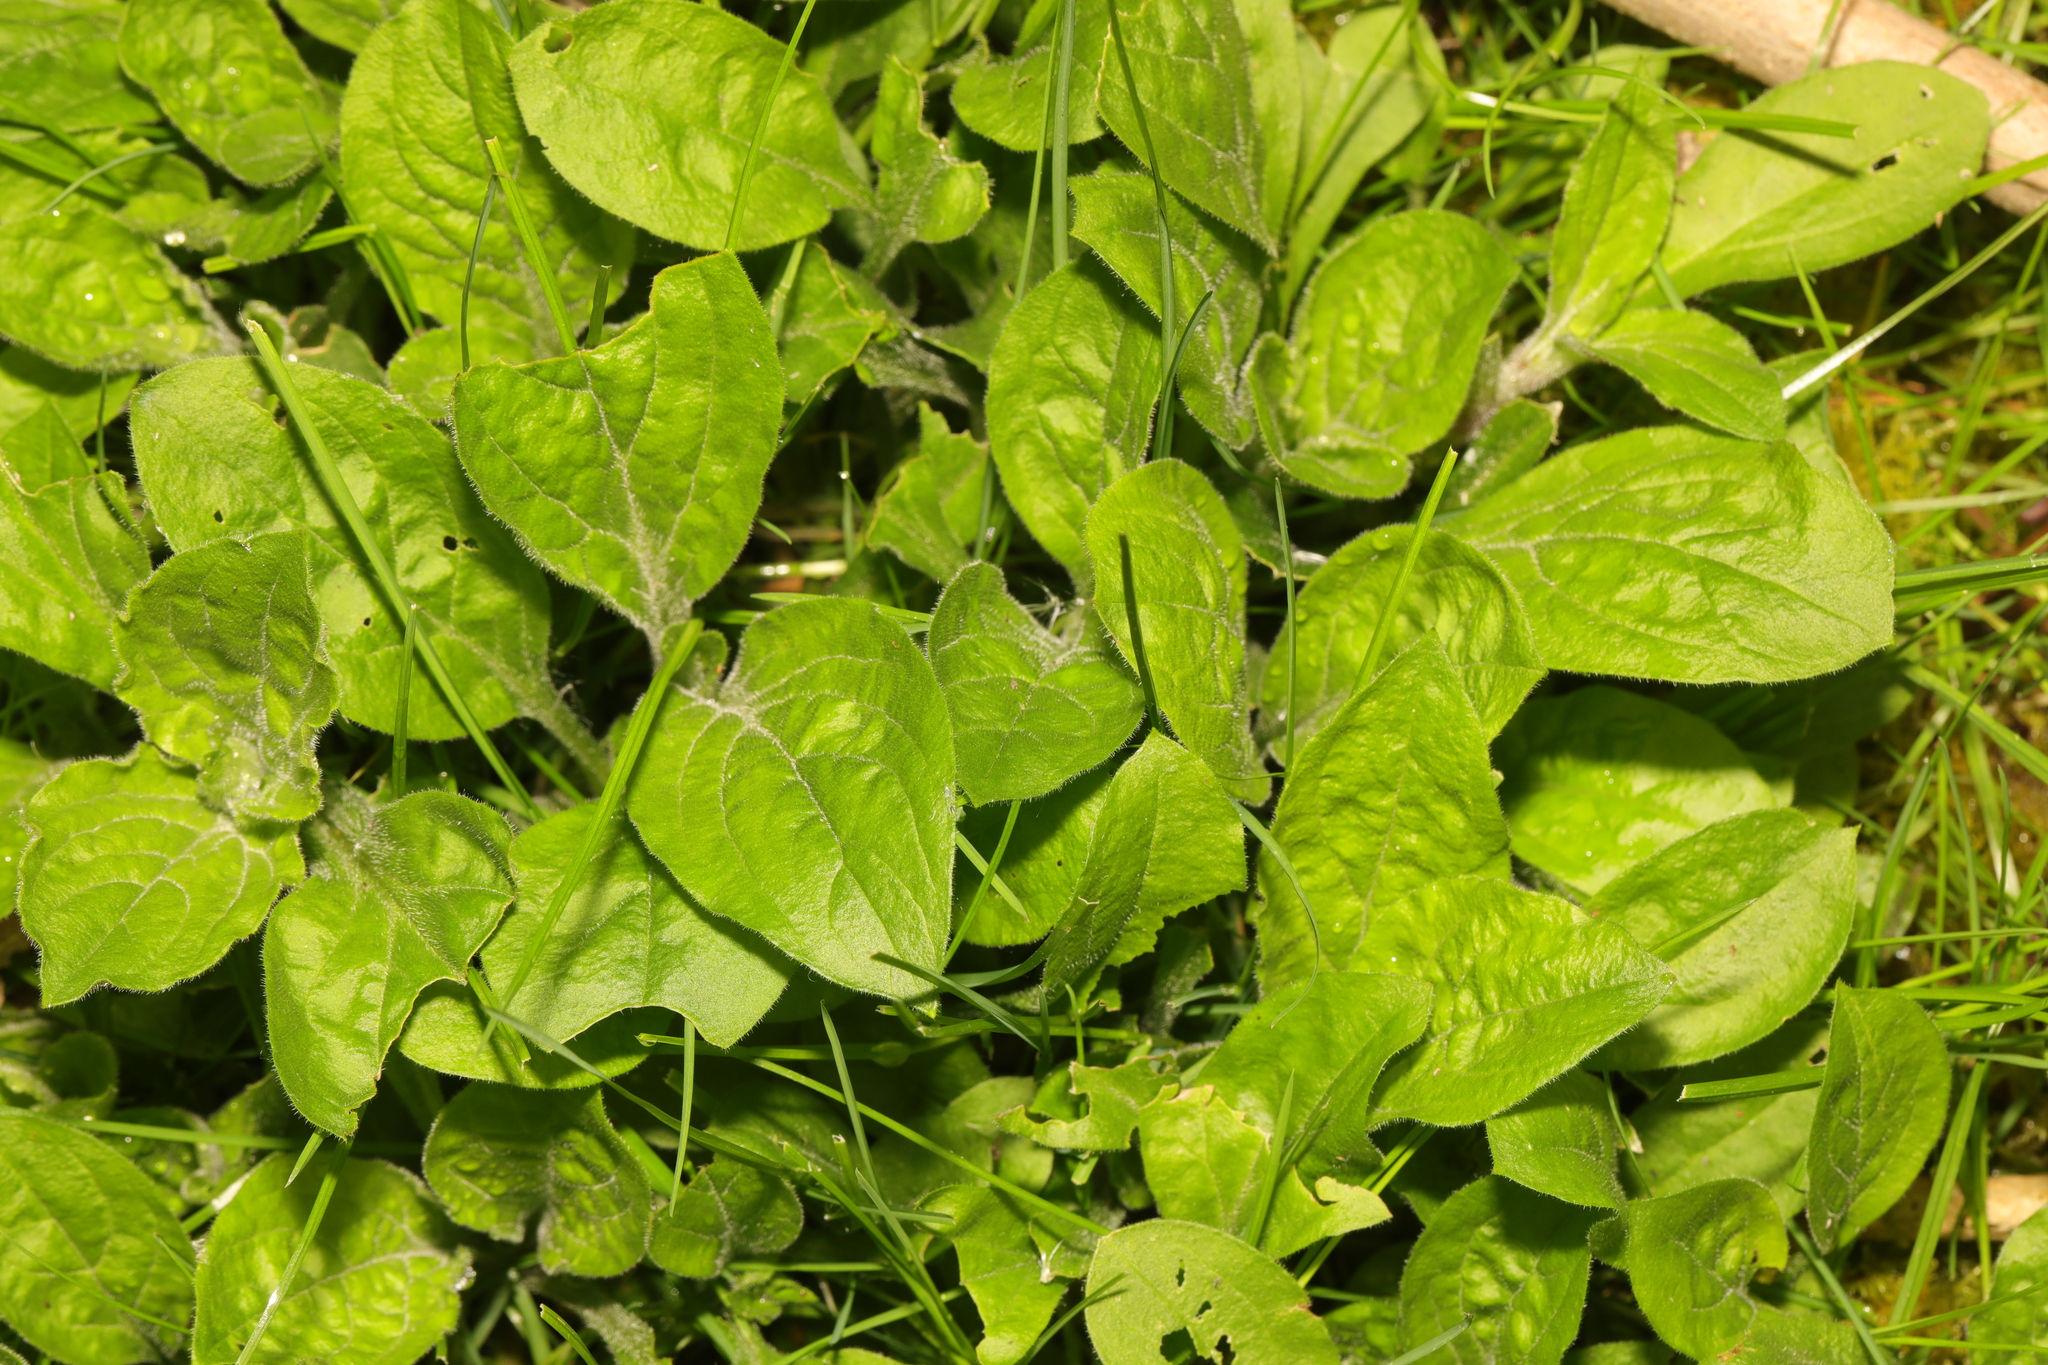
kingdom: Plantae
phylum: Tracheophyta
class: Magnoliopsida
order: Caryophyllales
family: Caryophyllaceae
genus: Silene
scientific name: Silene dioica
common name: Red campion
